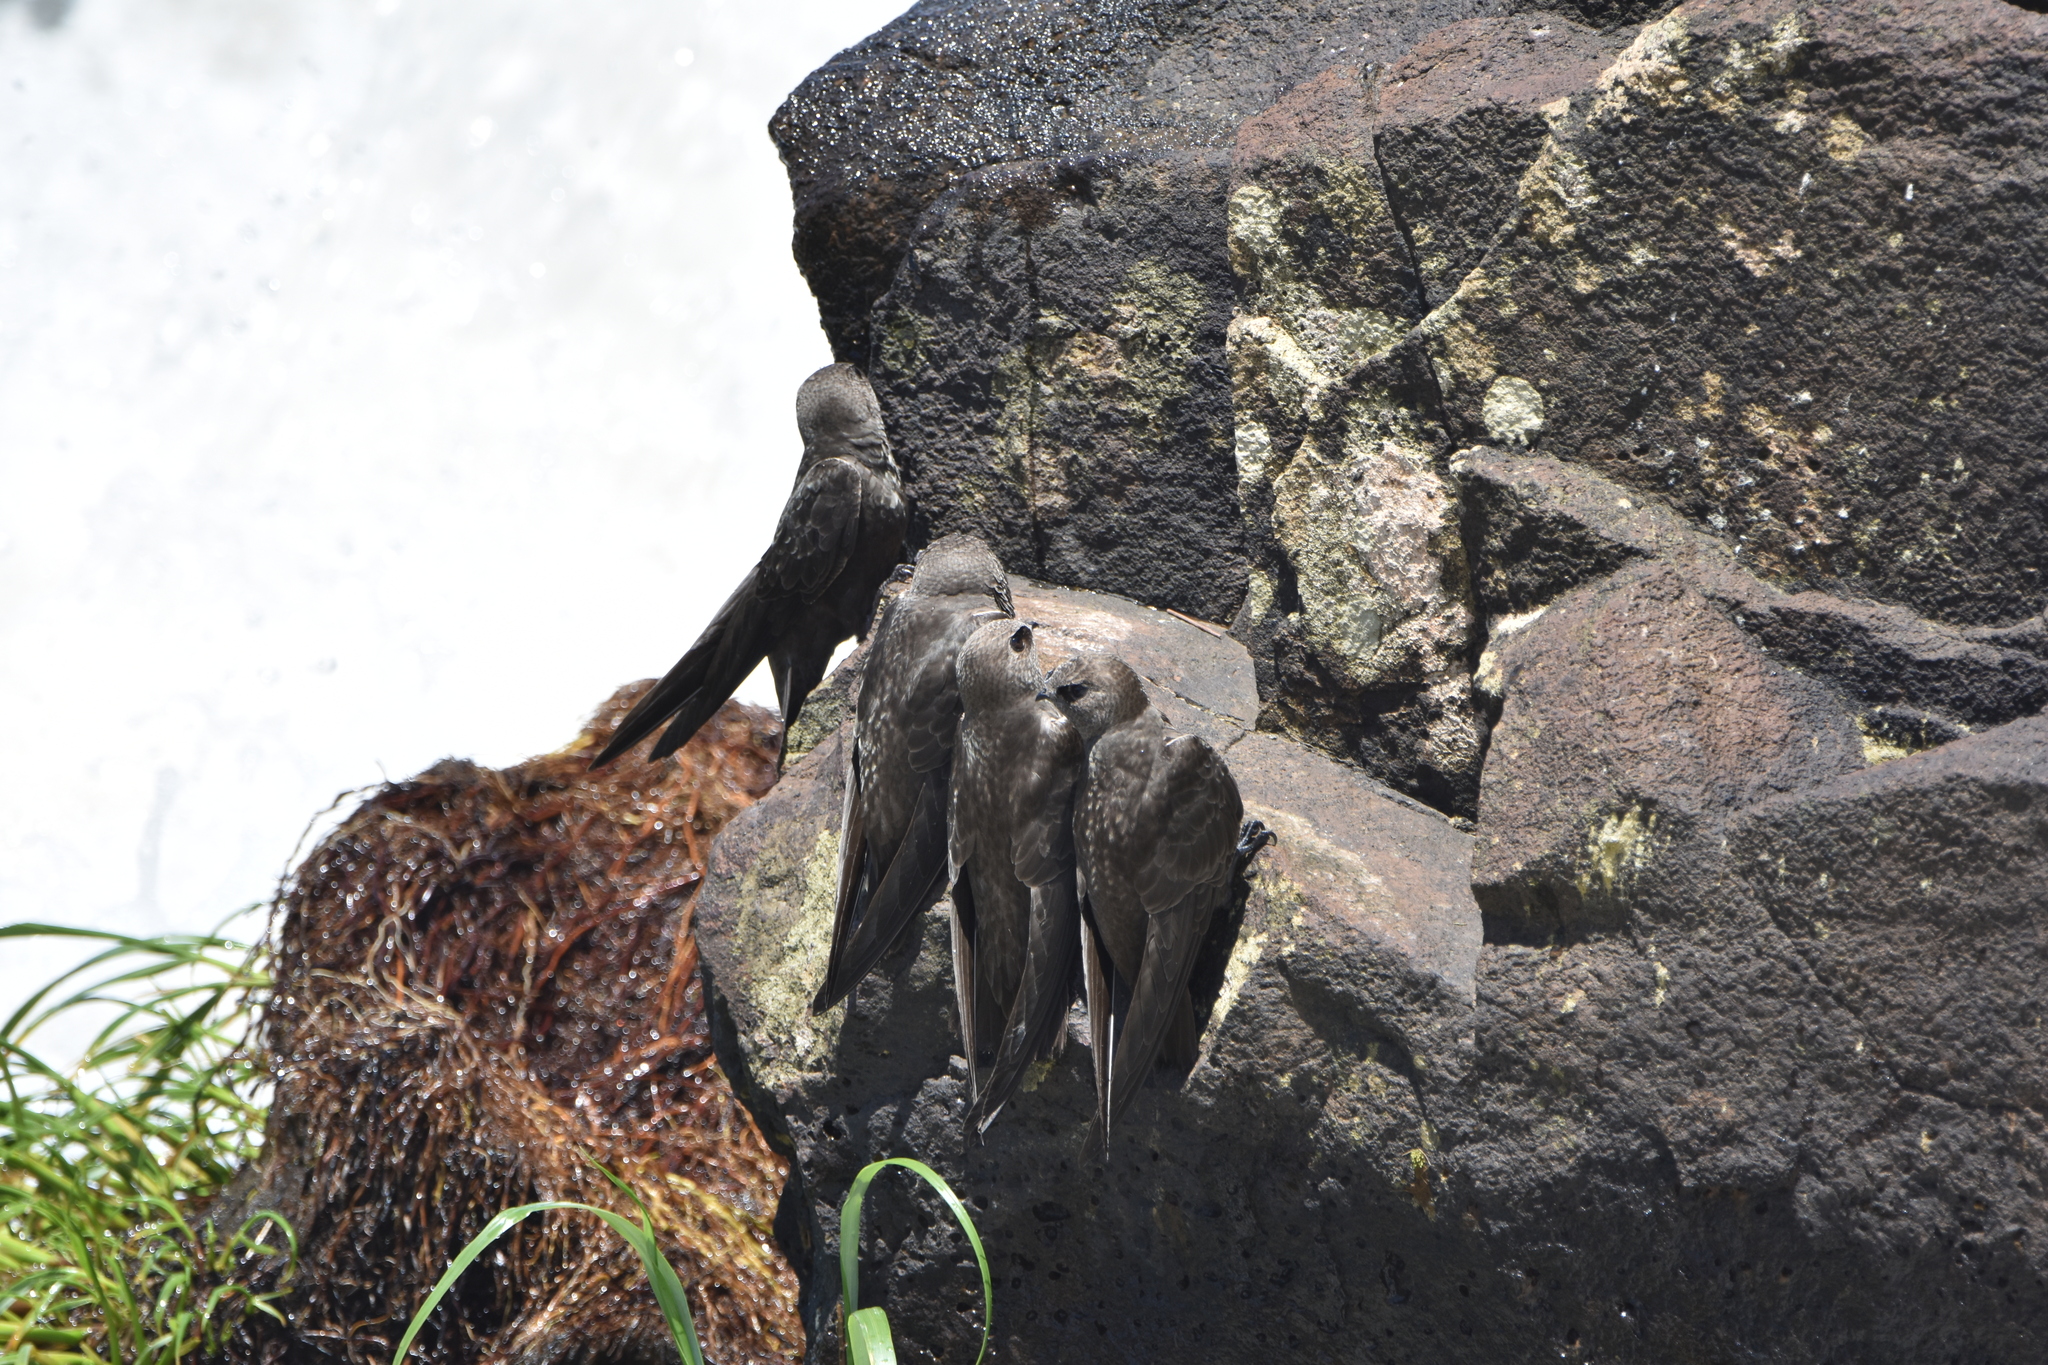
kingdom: Animalia
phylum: Chordata
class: Aves
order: Apodiformes
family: Apodidae
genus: Cypseloides
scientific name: Cypseloides senex
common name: Great dusky swift
